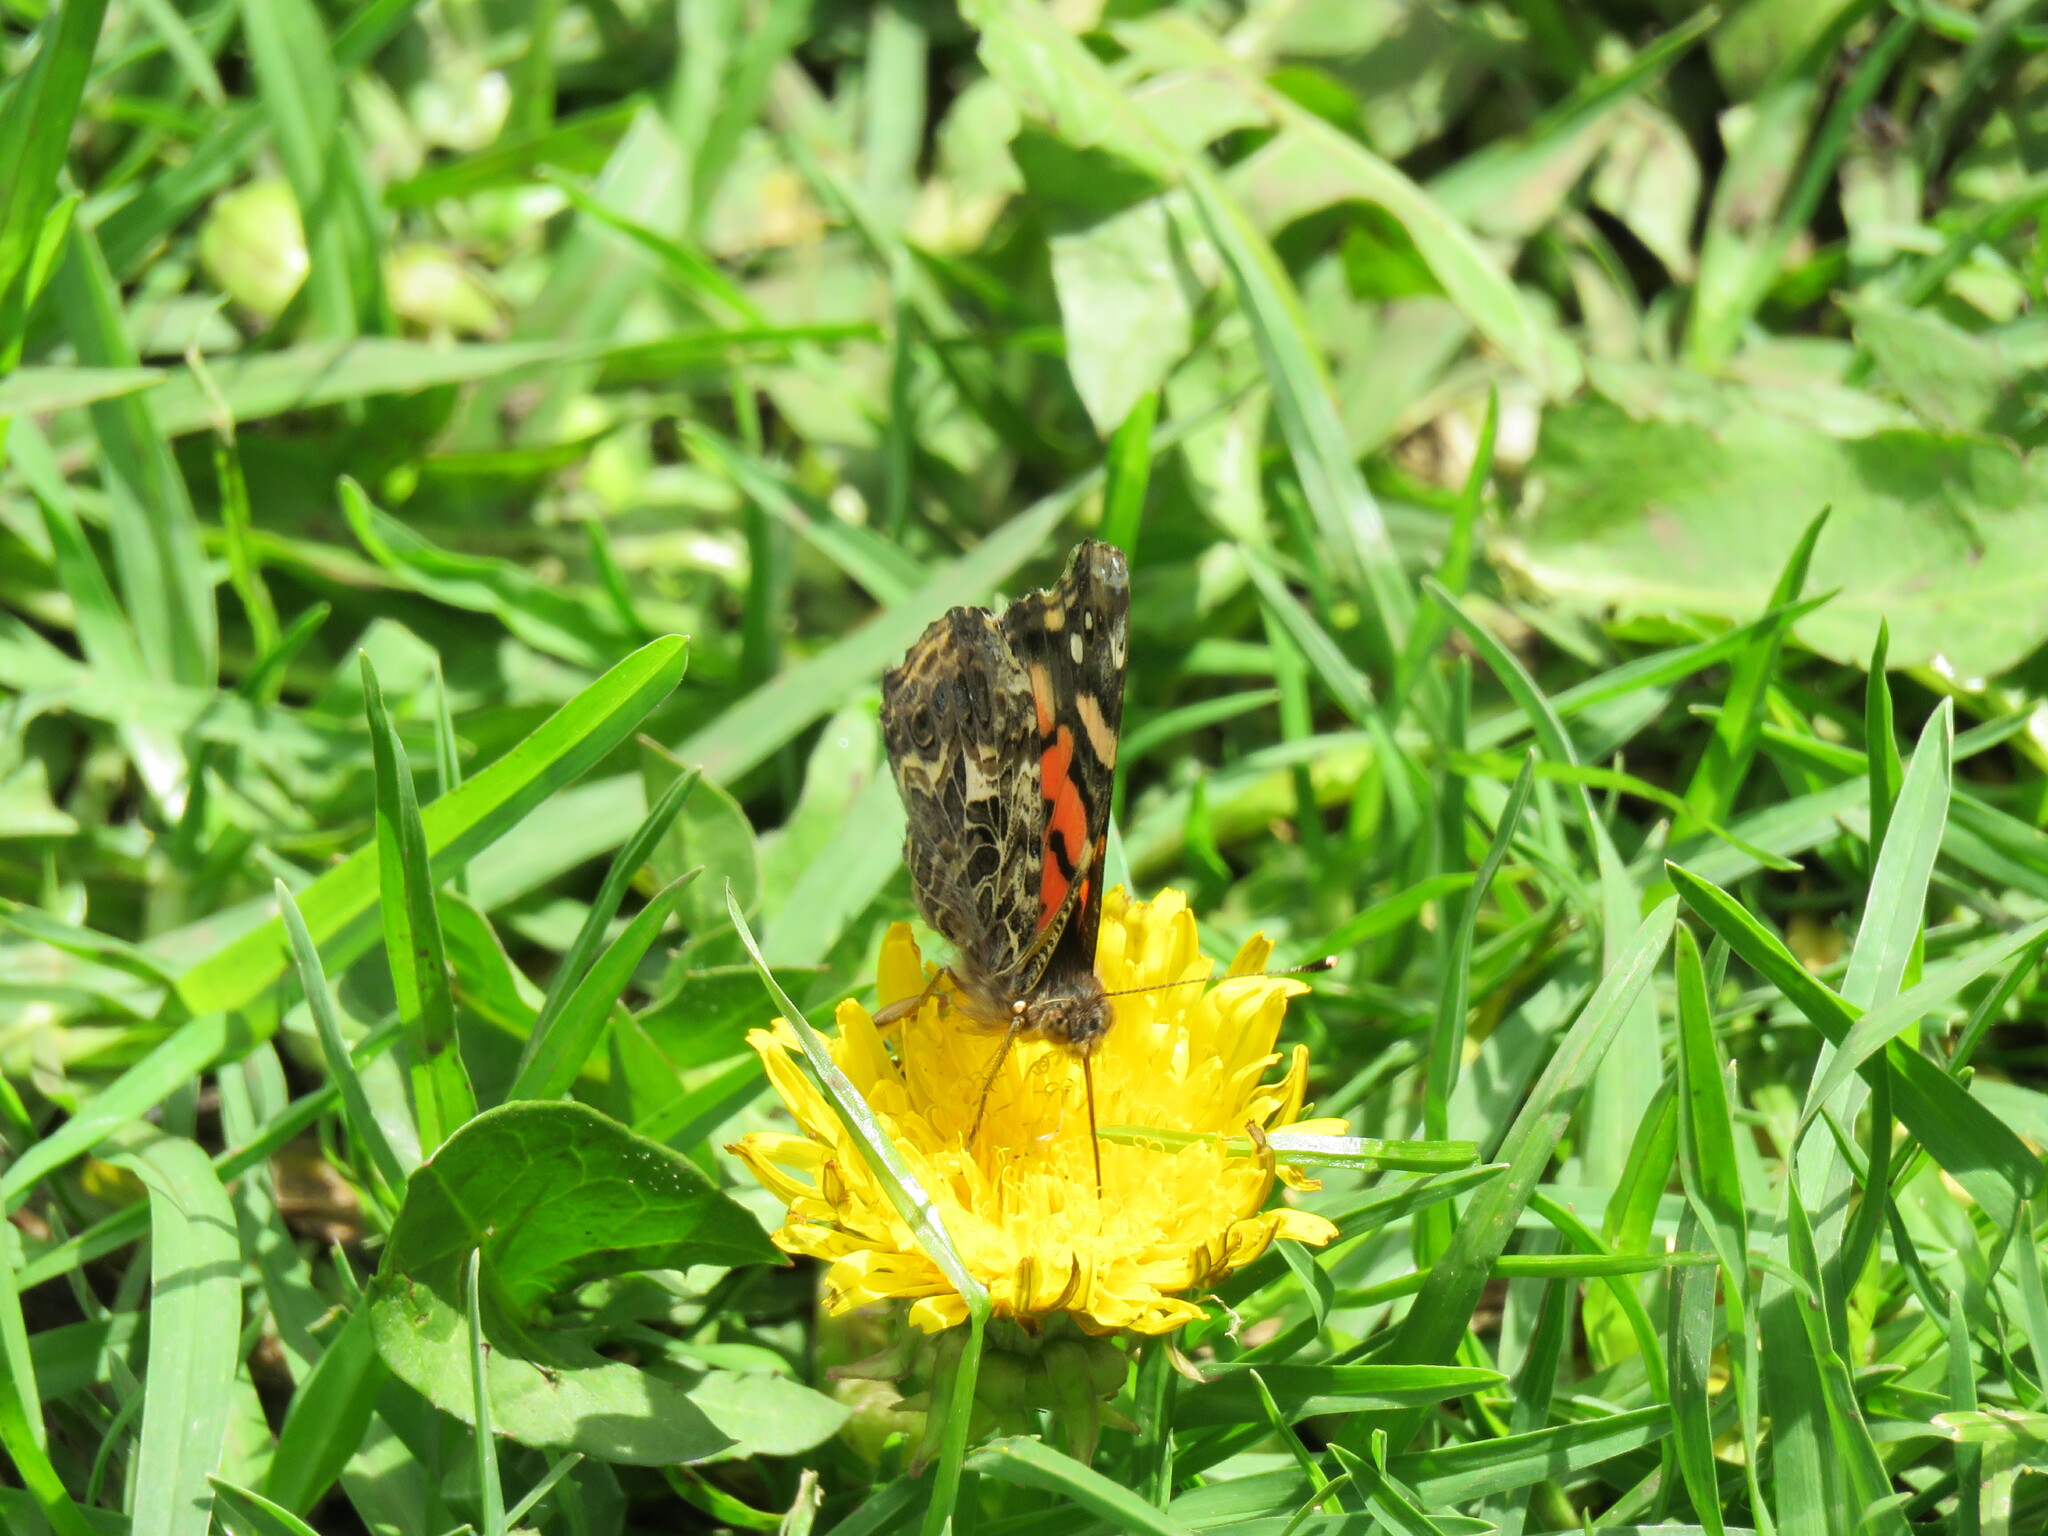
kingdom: Animalia
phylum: Arthropoda
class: Insecta
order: Lepidoptera
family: Nymphalidae
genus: Vanessa
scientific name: Vanessa carye
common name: Subtropical lady
